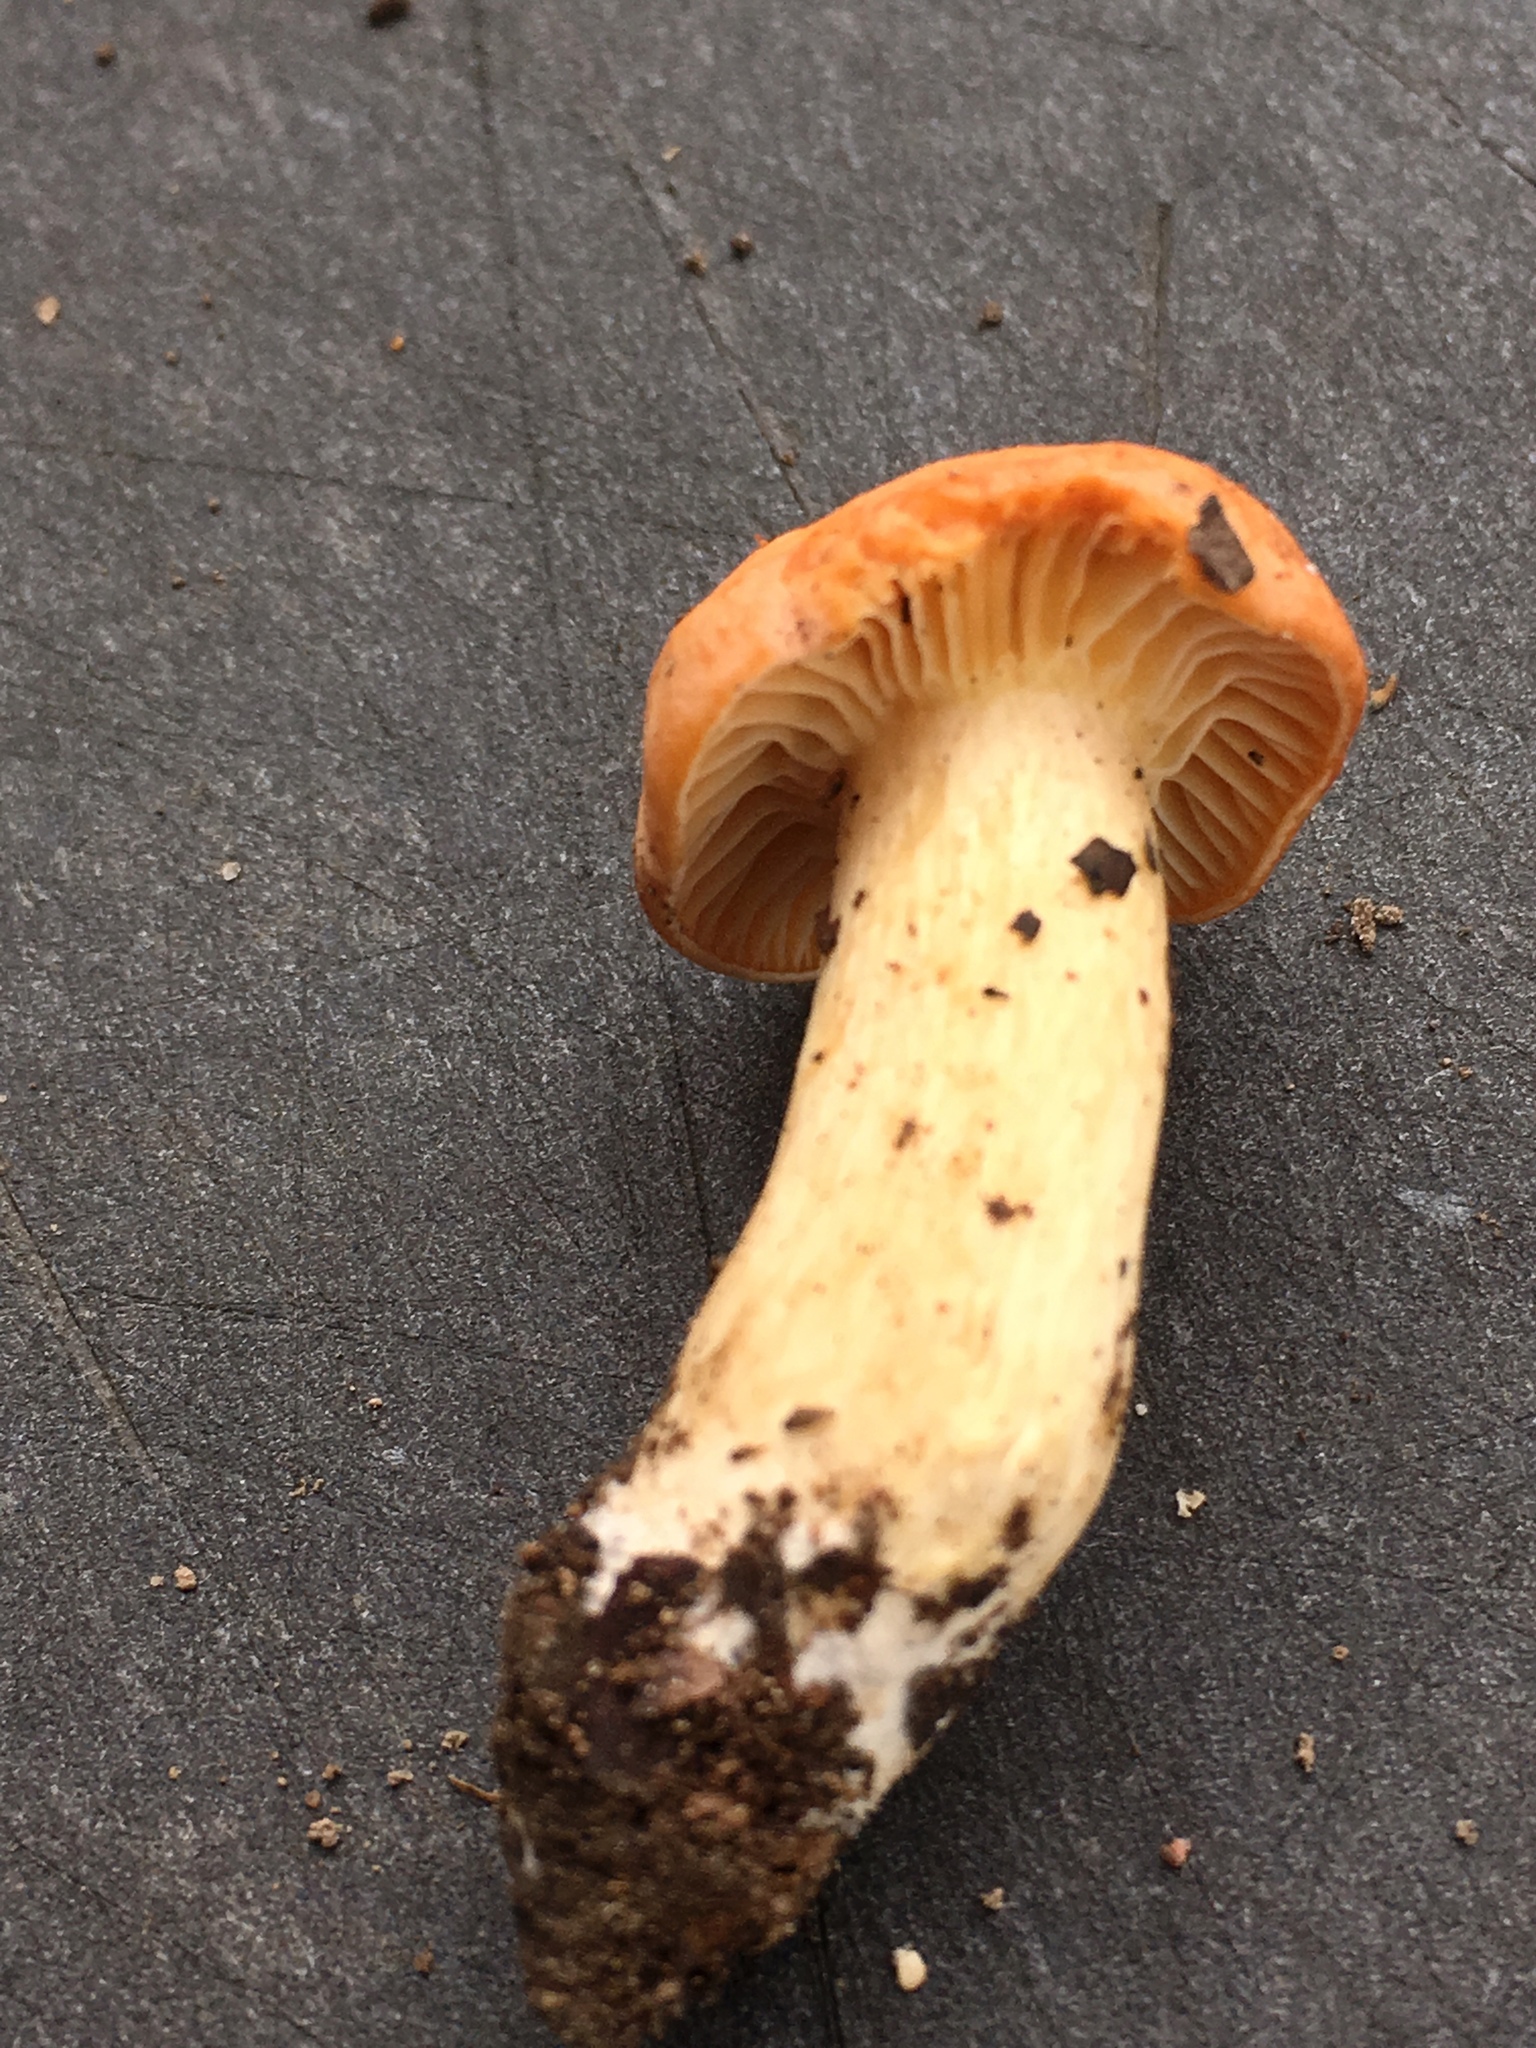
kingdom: Fungi
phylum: Basidiomycota
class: Agaricomycetes
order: Agaricales
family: Hygrophoraceae
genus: Cuphophyllus
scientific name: Cuphophyllus pratensis
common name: Meadow waxcap
